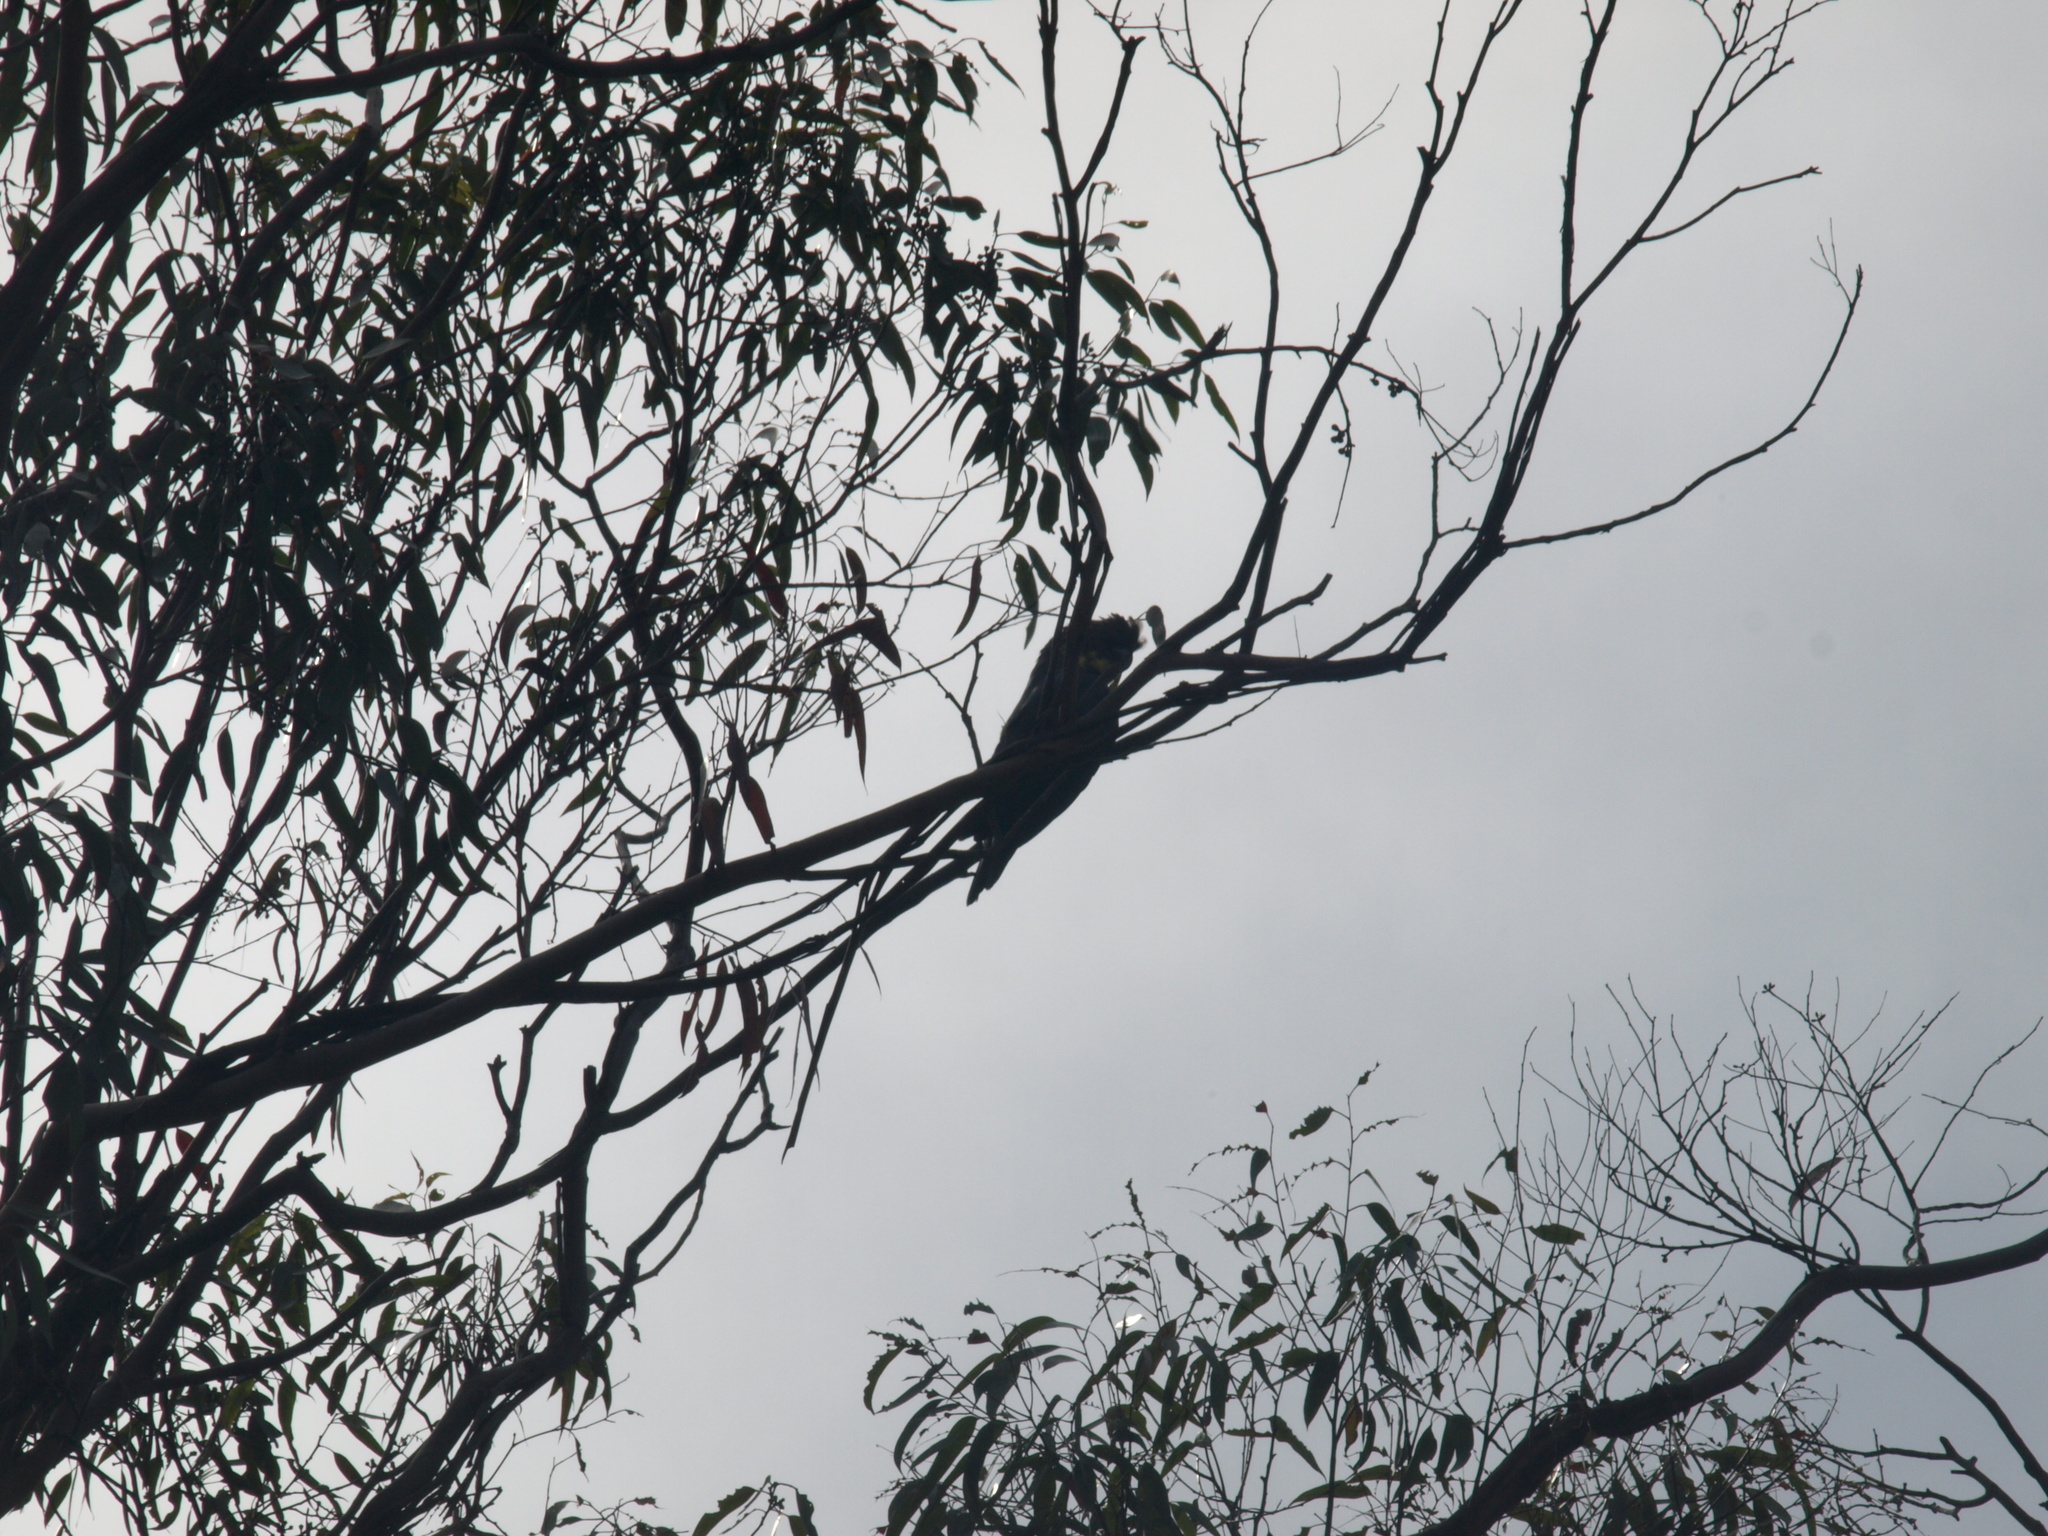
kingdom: Animalia
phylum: Chordata
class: Aves
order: Psittaciformes
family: Psittacidae
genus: Calyptorhynchus
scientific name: Calyptorhynchus lathami
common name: Glossy black cockatoo
